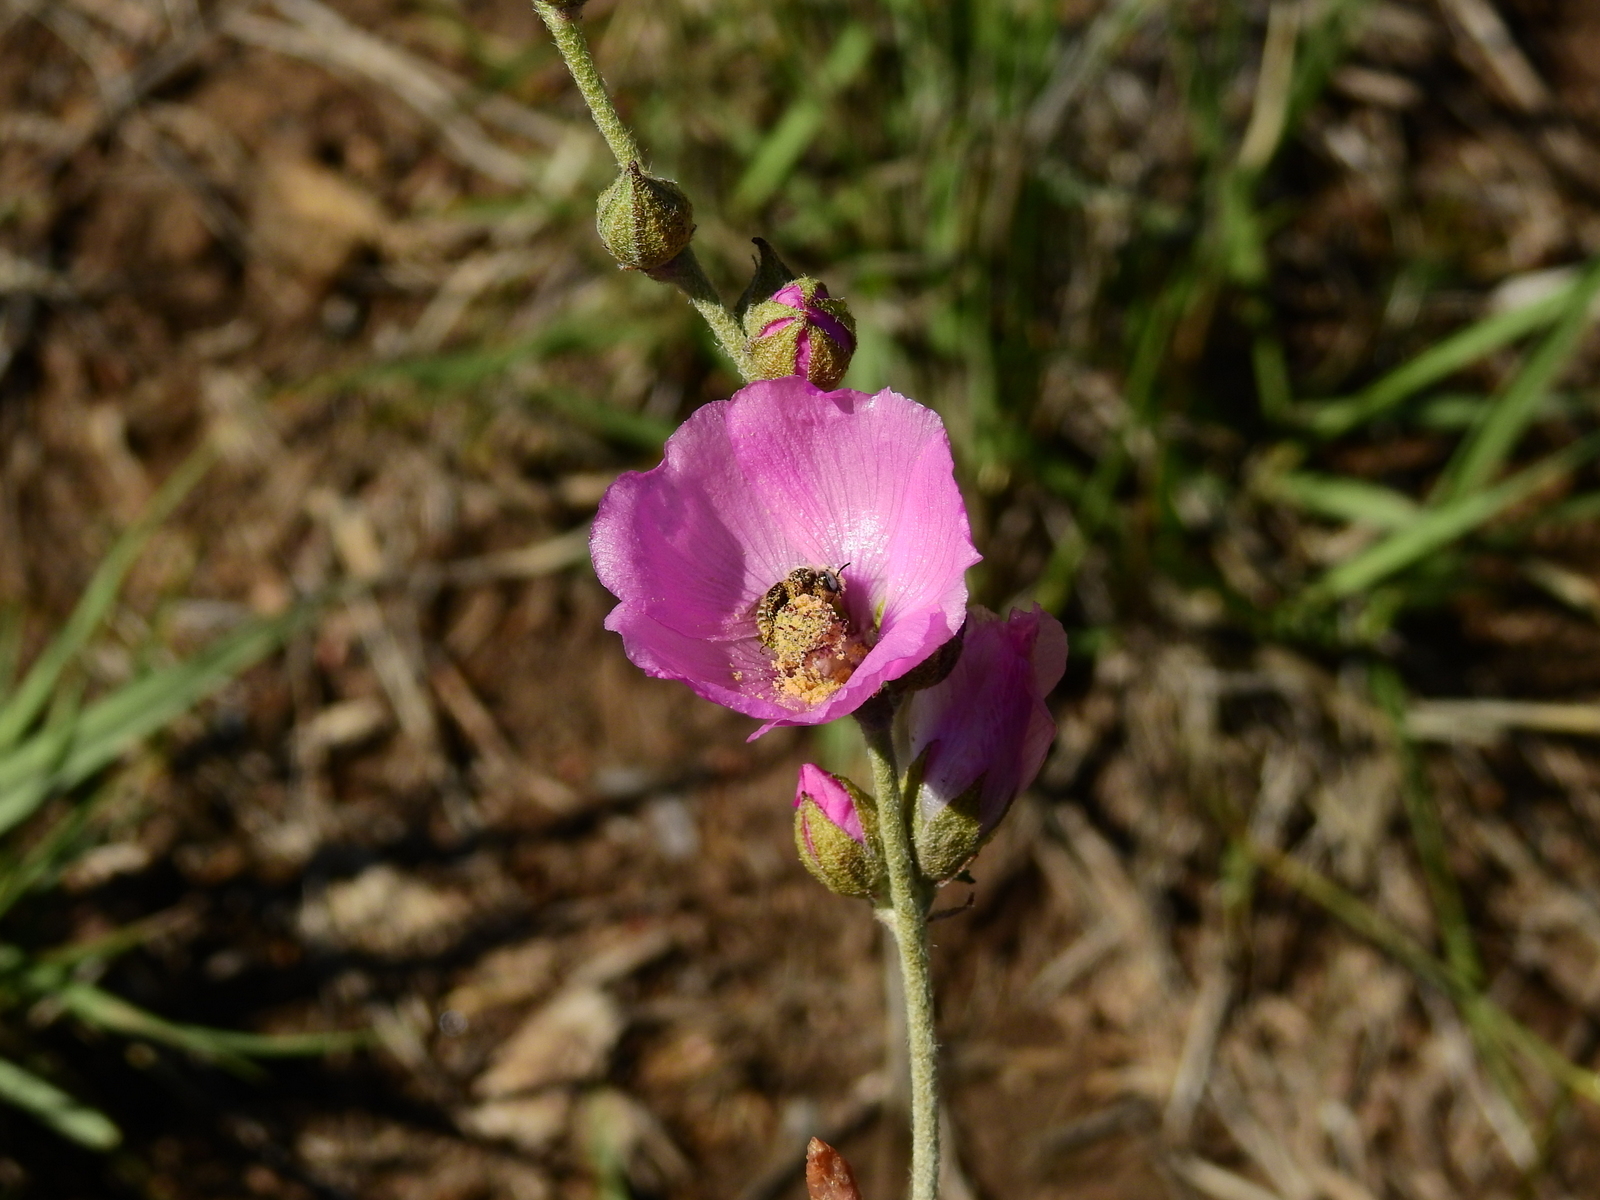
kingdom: Plantae
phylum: Tracheophyta
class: Magnoliopsida
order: Malvales
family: Malvaceae
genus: Lecanophora
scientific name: Lecanophora heterophylla
